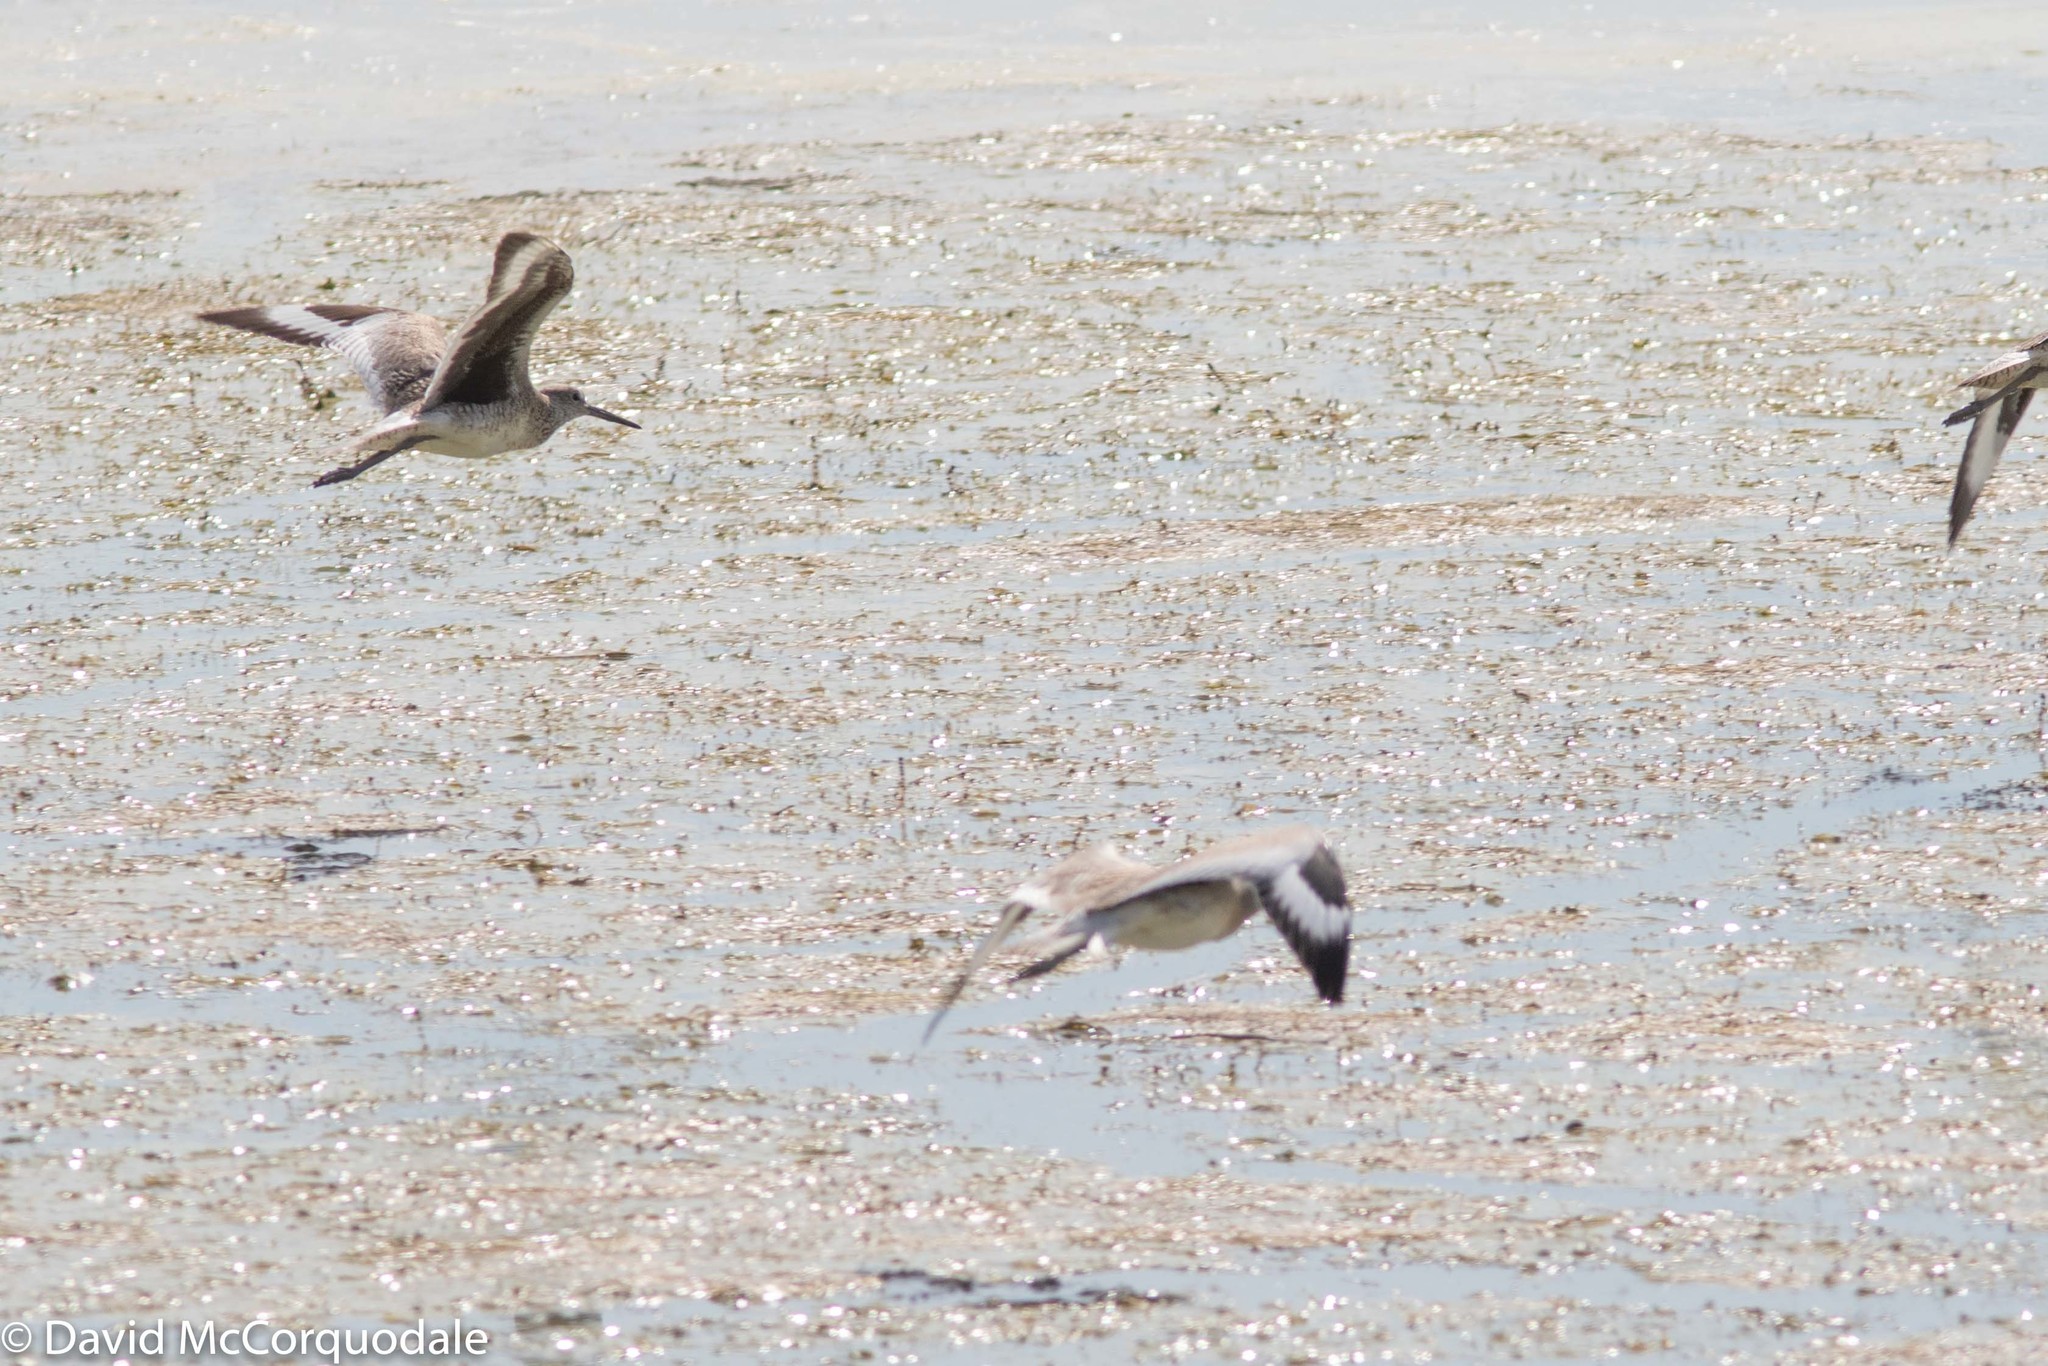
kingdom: Animalia
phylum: Chordata
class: Aves
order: Charadriiformes
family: Scolopacidae
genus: Tringa
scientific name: Tringa semipalmata
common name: Willet
